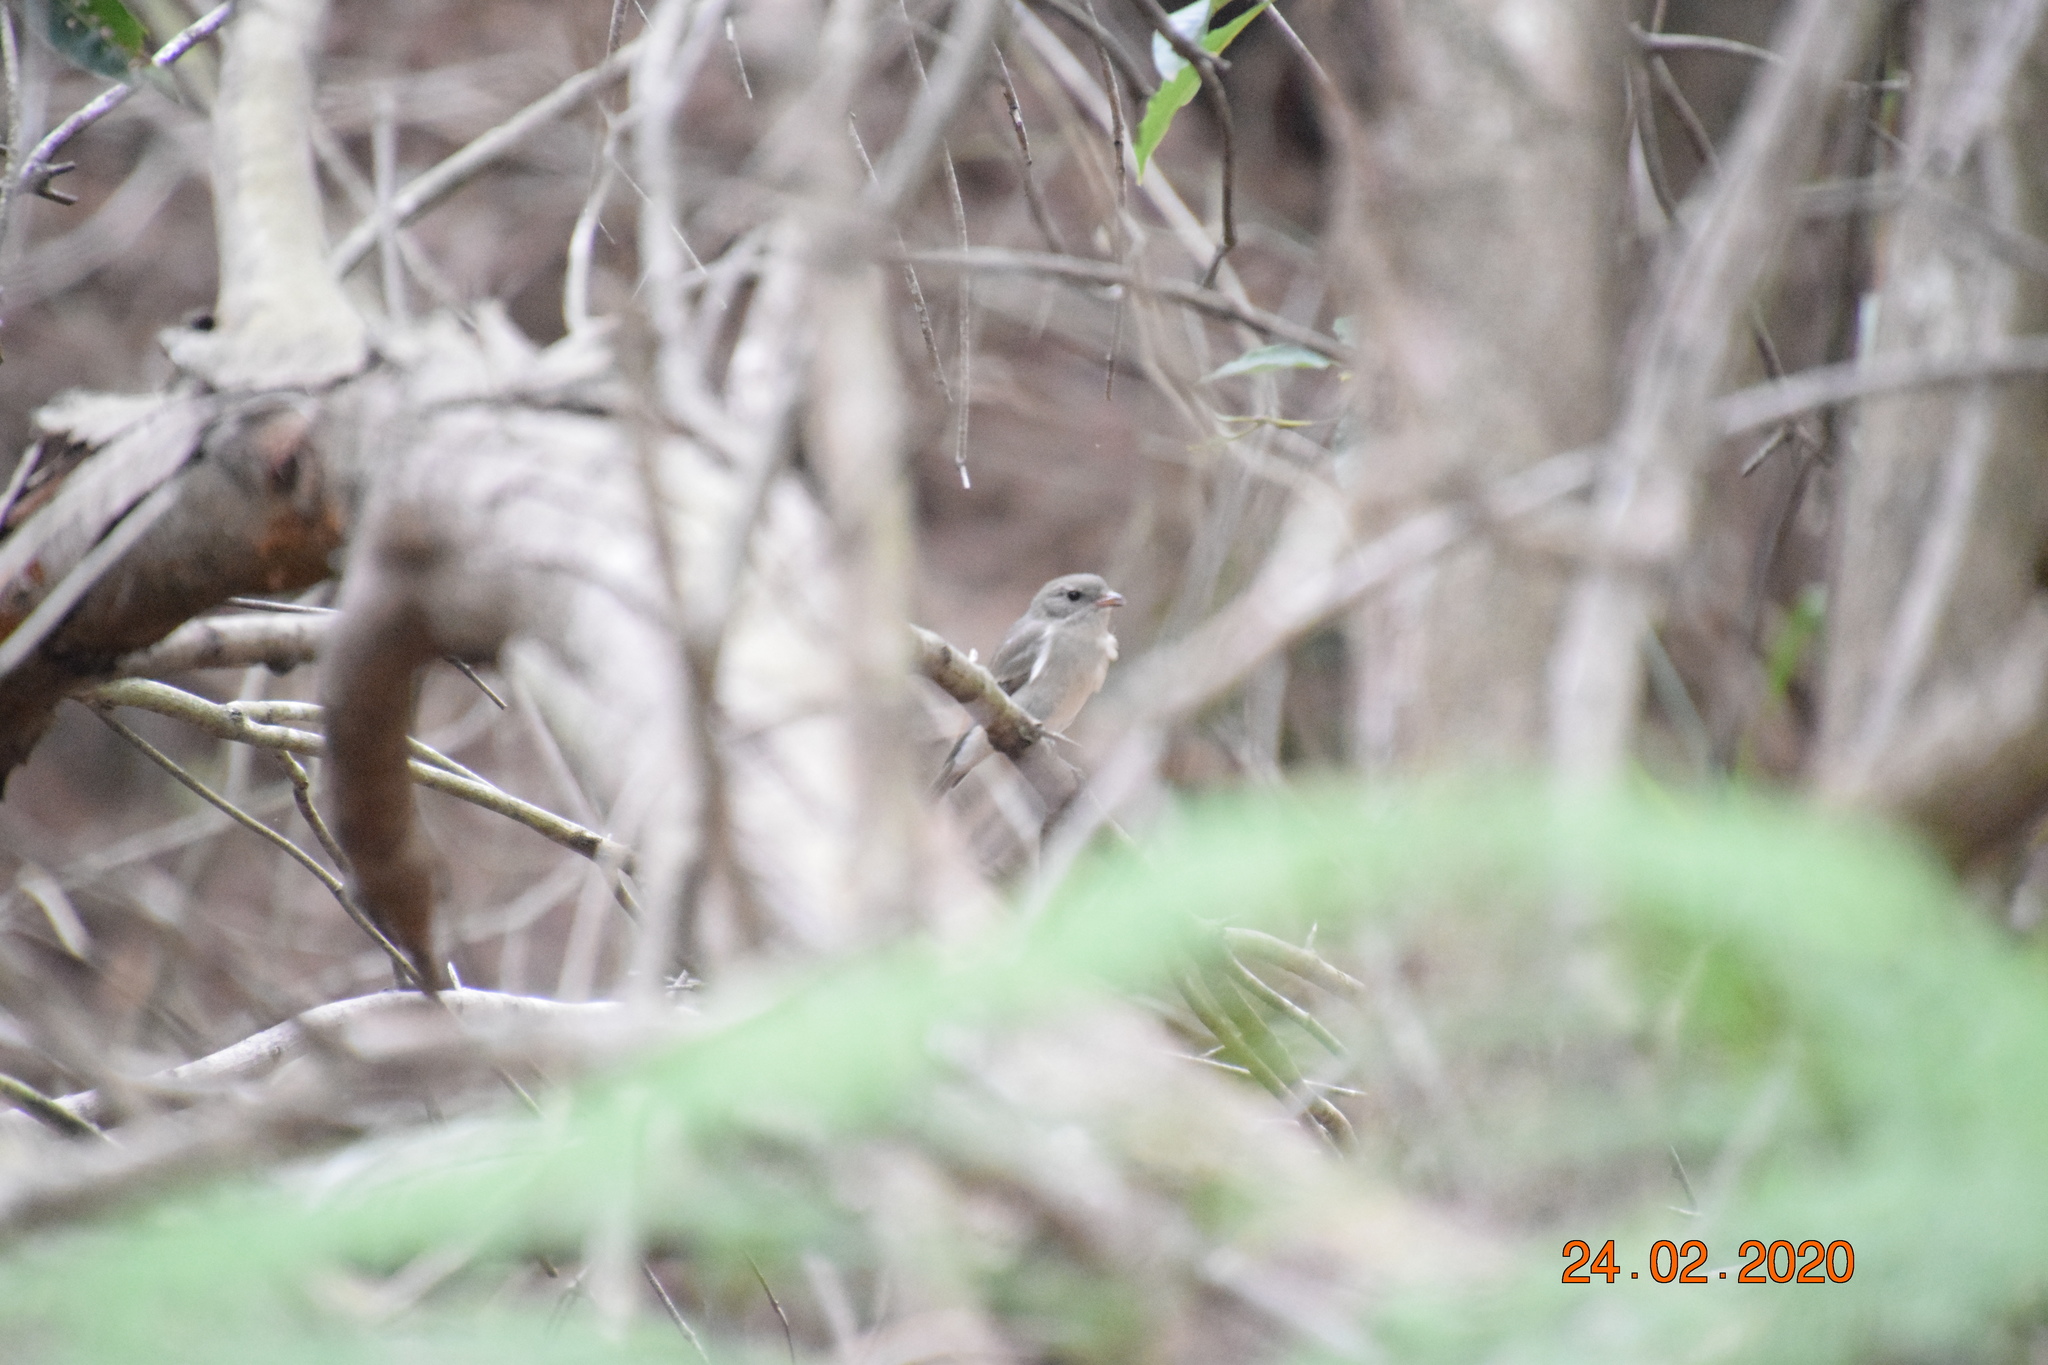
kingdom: Animalia
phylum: Chordata
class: Aves
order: Passeriformes
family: Pachycephalidae
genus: Pachycephala
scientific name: Pachycephala pectoralis
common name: Australian golden whistler
